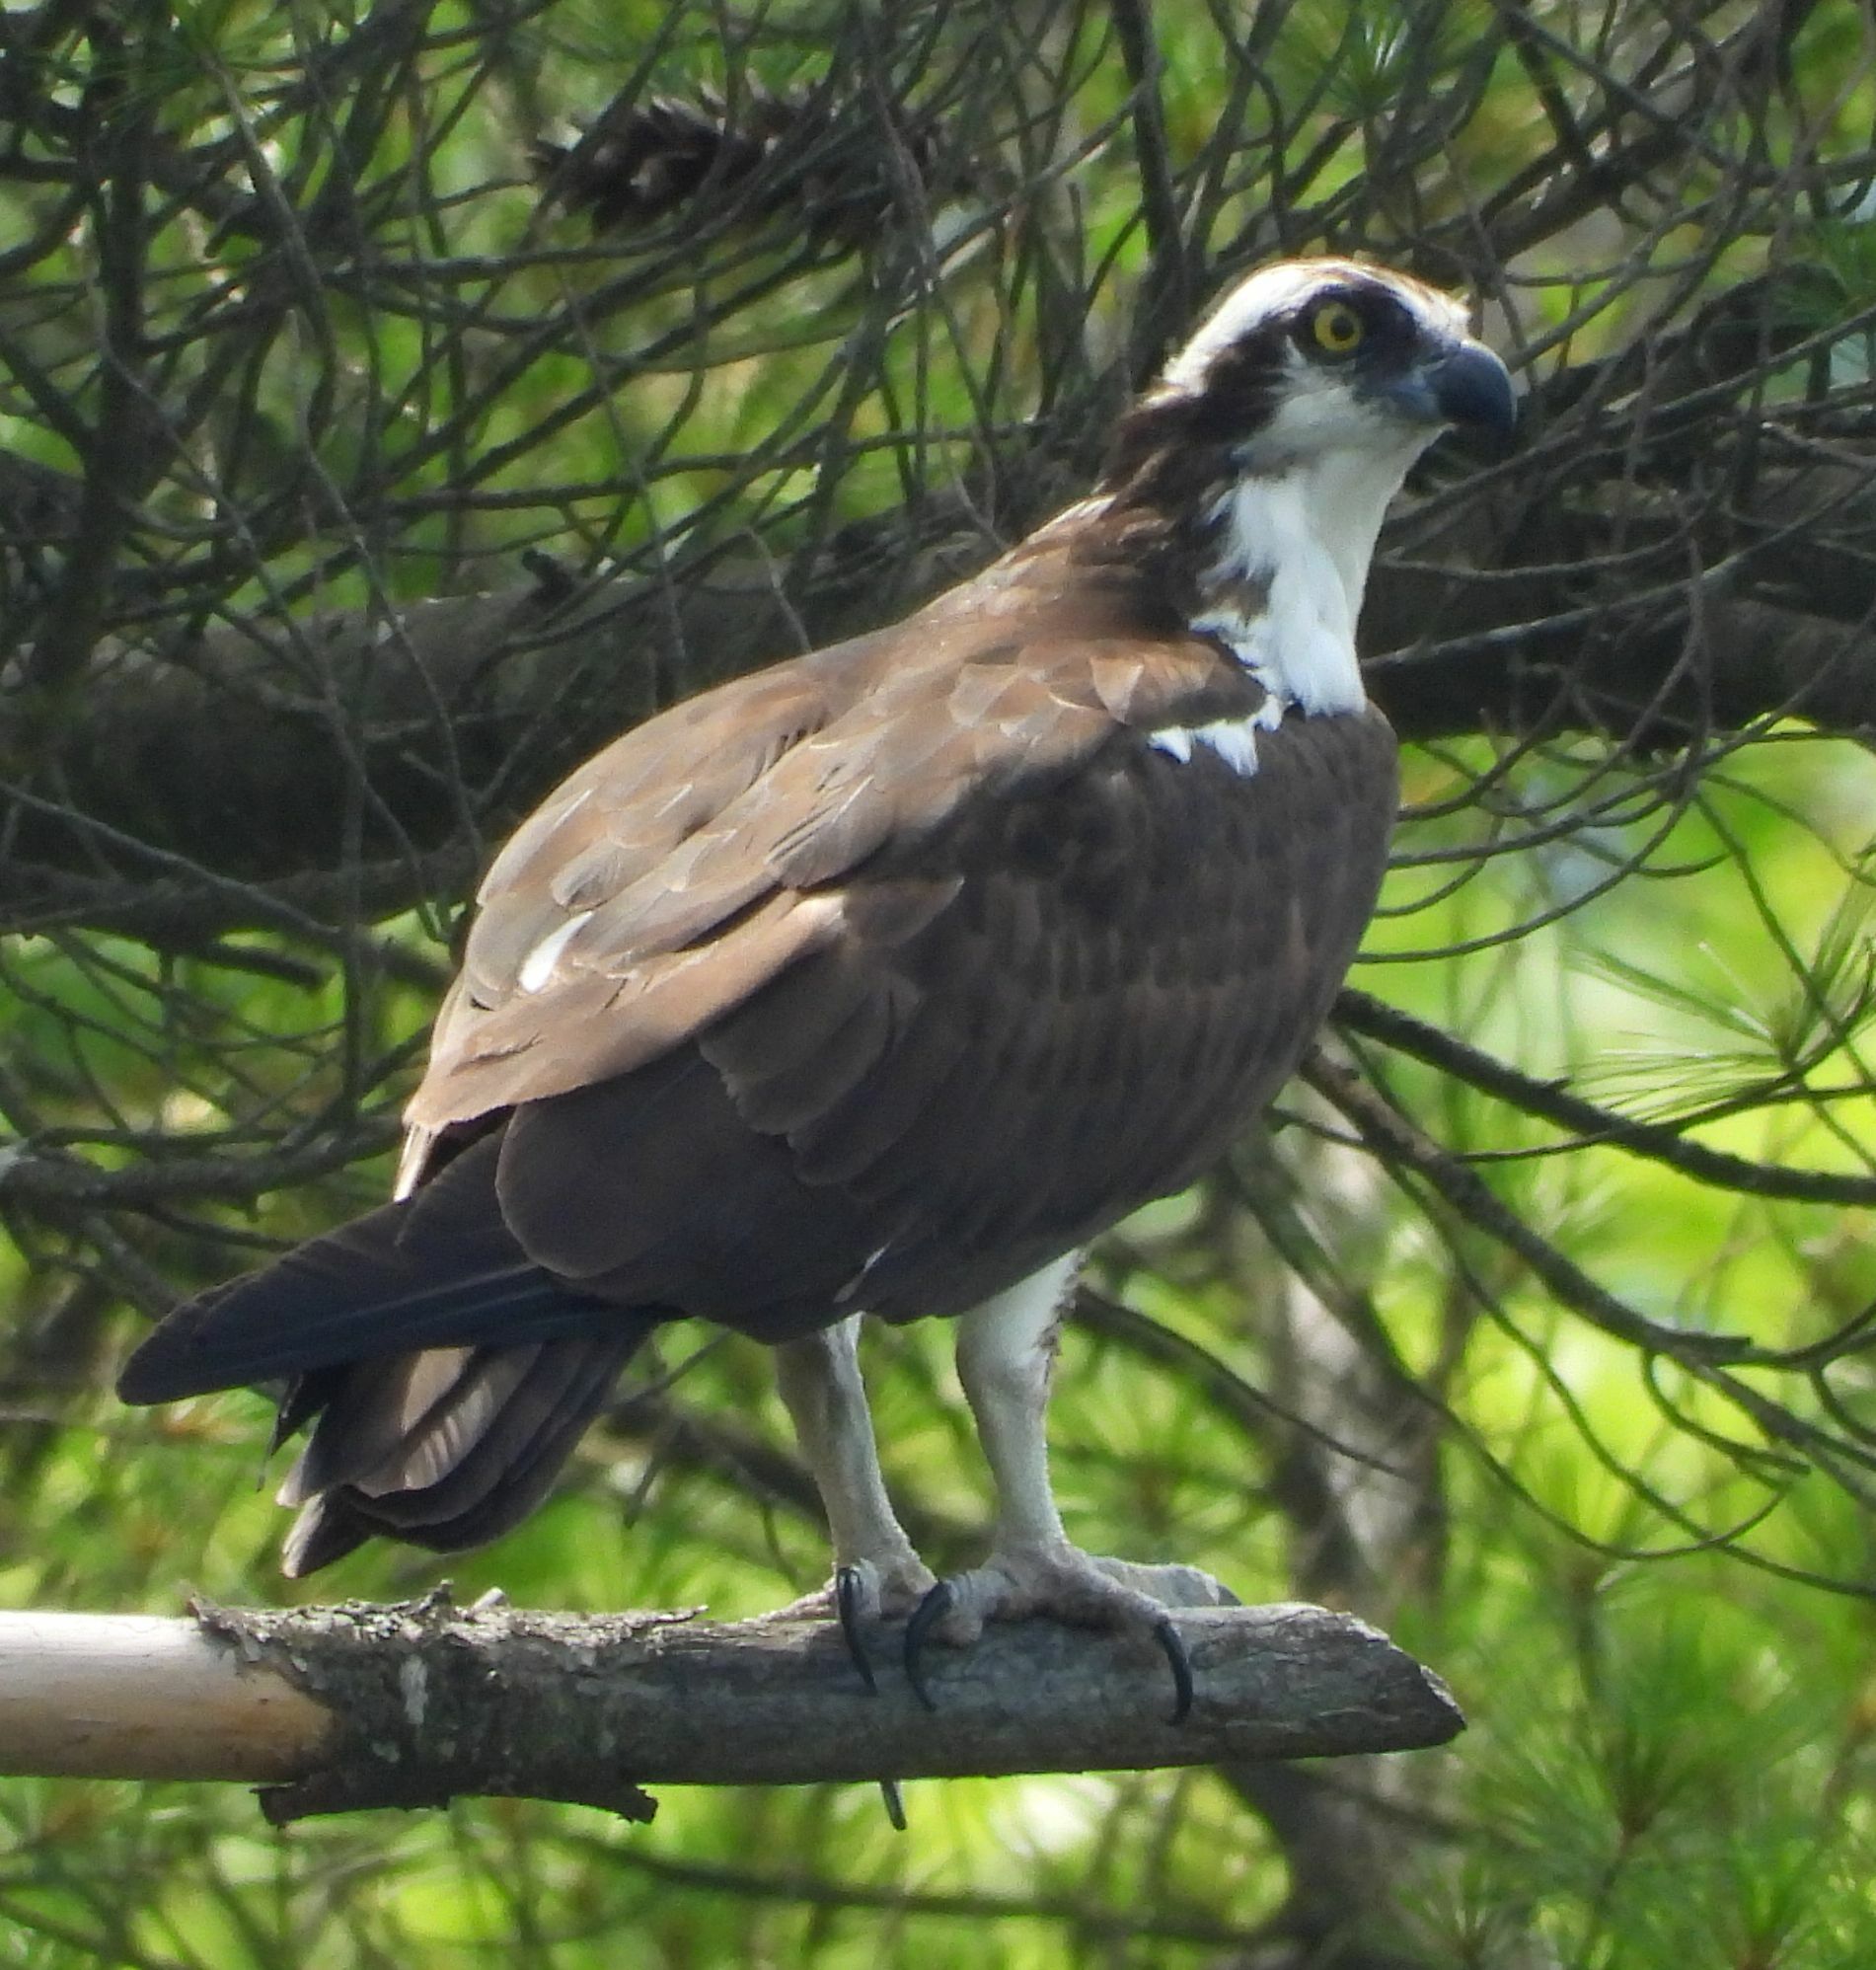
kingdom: Animalia
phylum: Chordata
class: Aves
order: Accipitriformes
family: Pandionidae
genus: Pandion
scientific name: Pandion haliaetus
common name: Osprey
